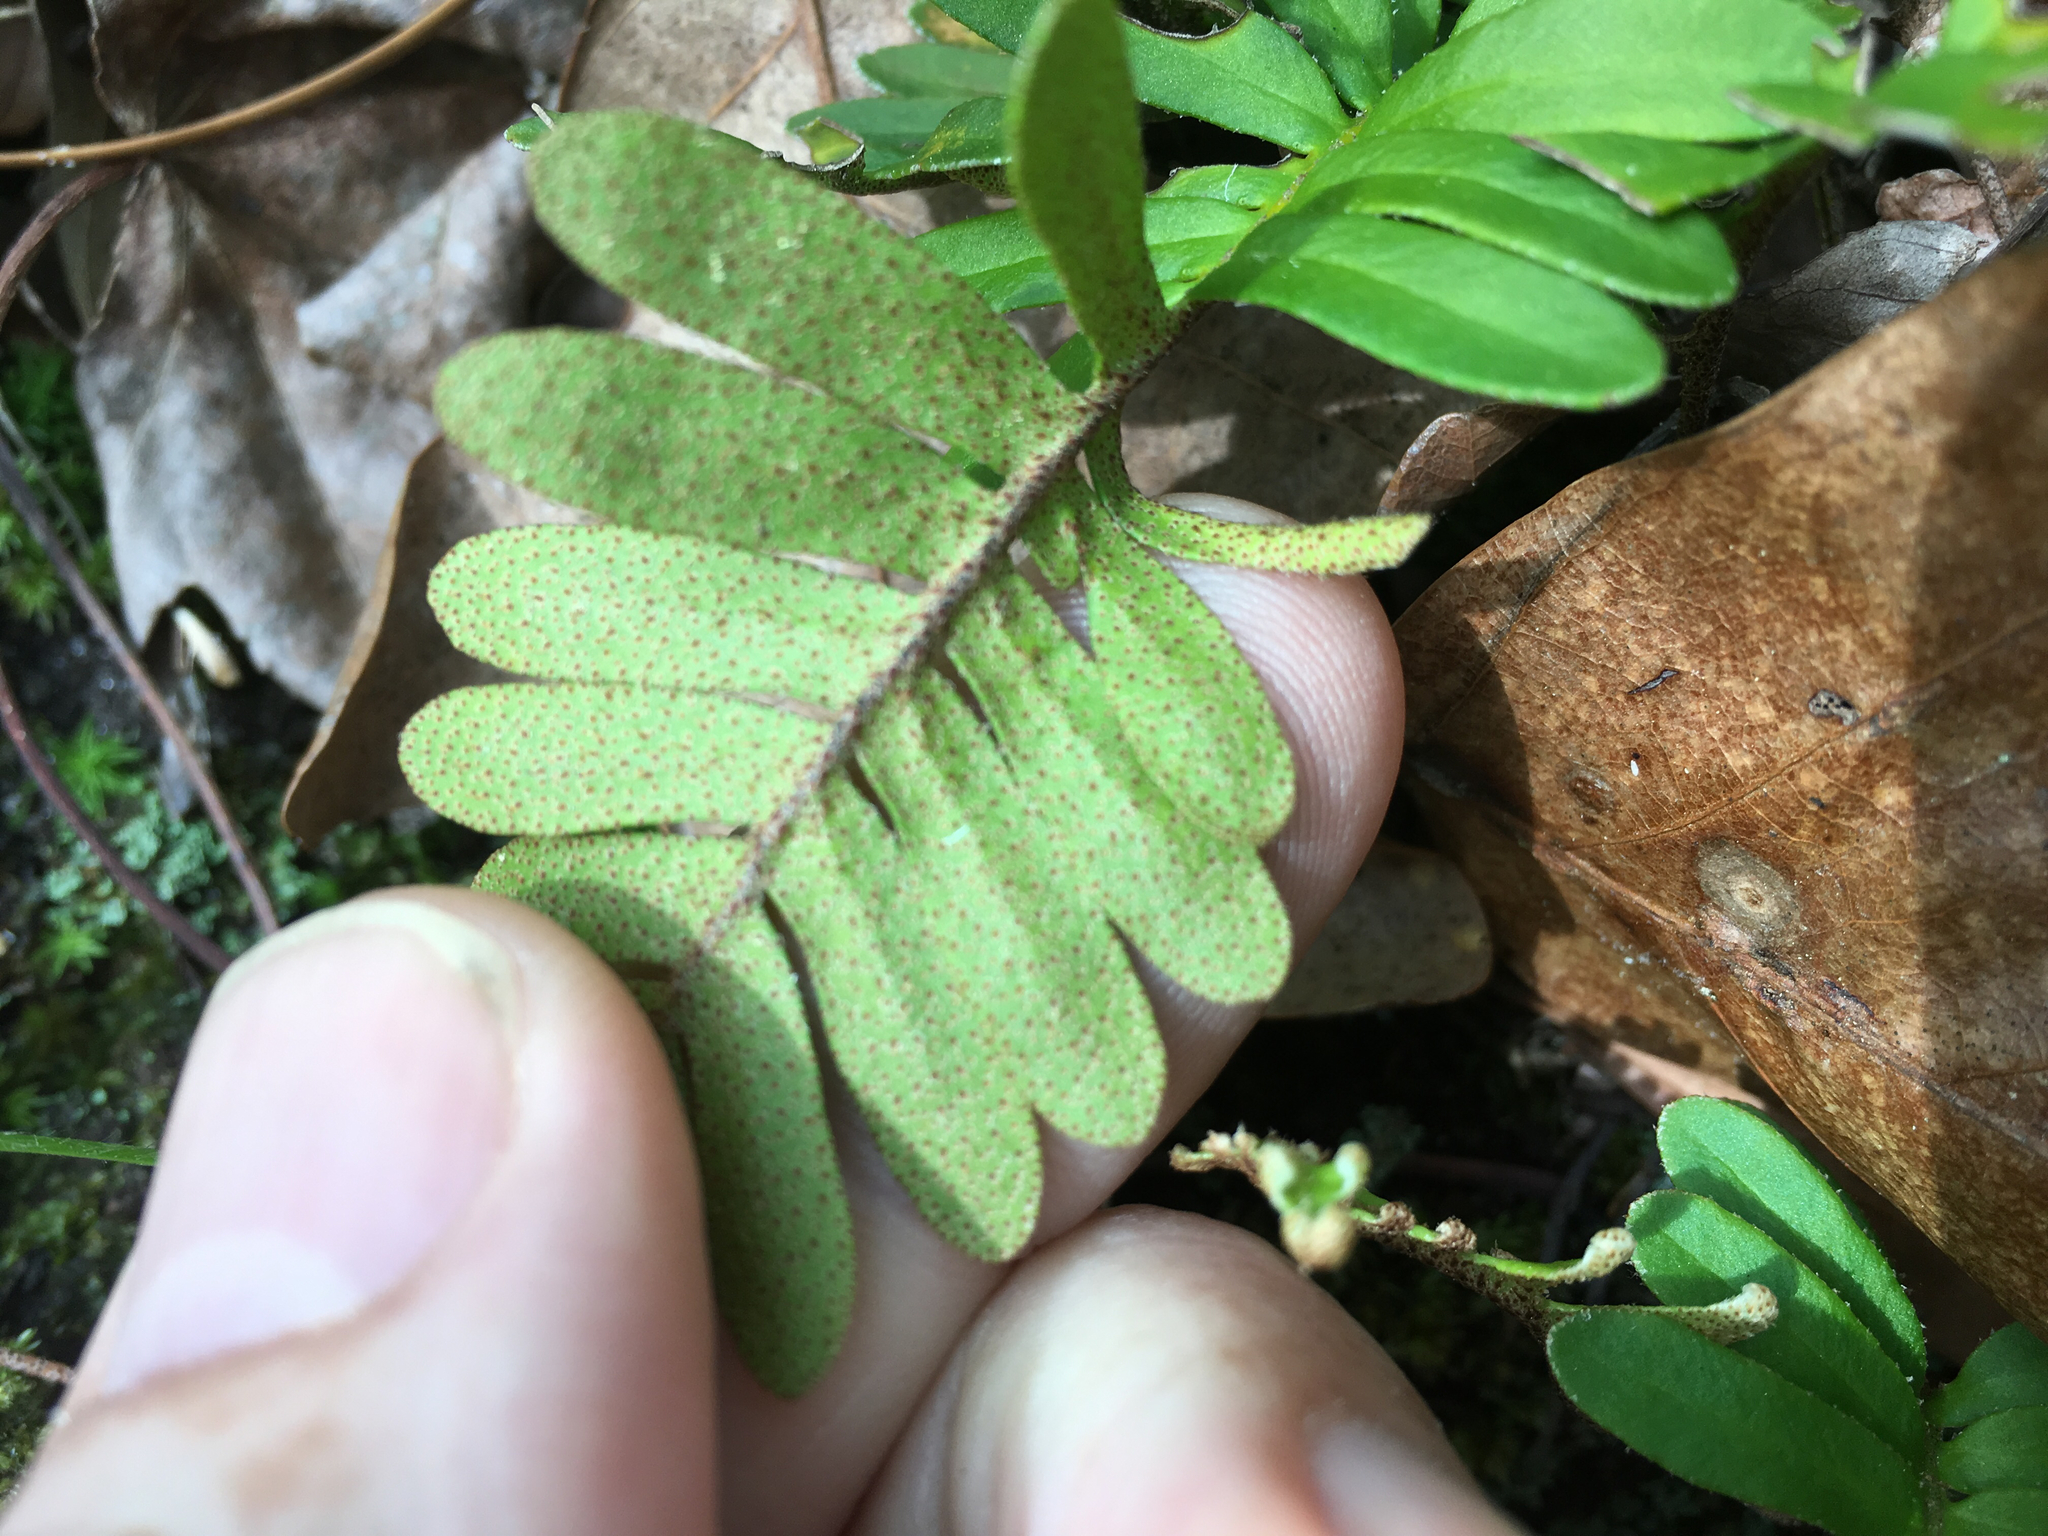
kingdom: Plantae
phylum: Tracheophyta
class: Polypodiopsida
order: Polypodiales
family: Polypodiaceae
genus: Pleopeltis
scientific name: Pleopeltis michauxiana
